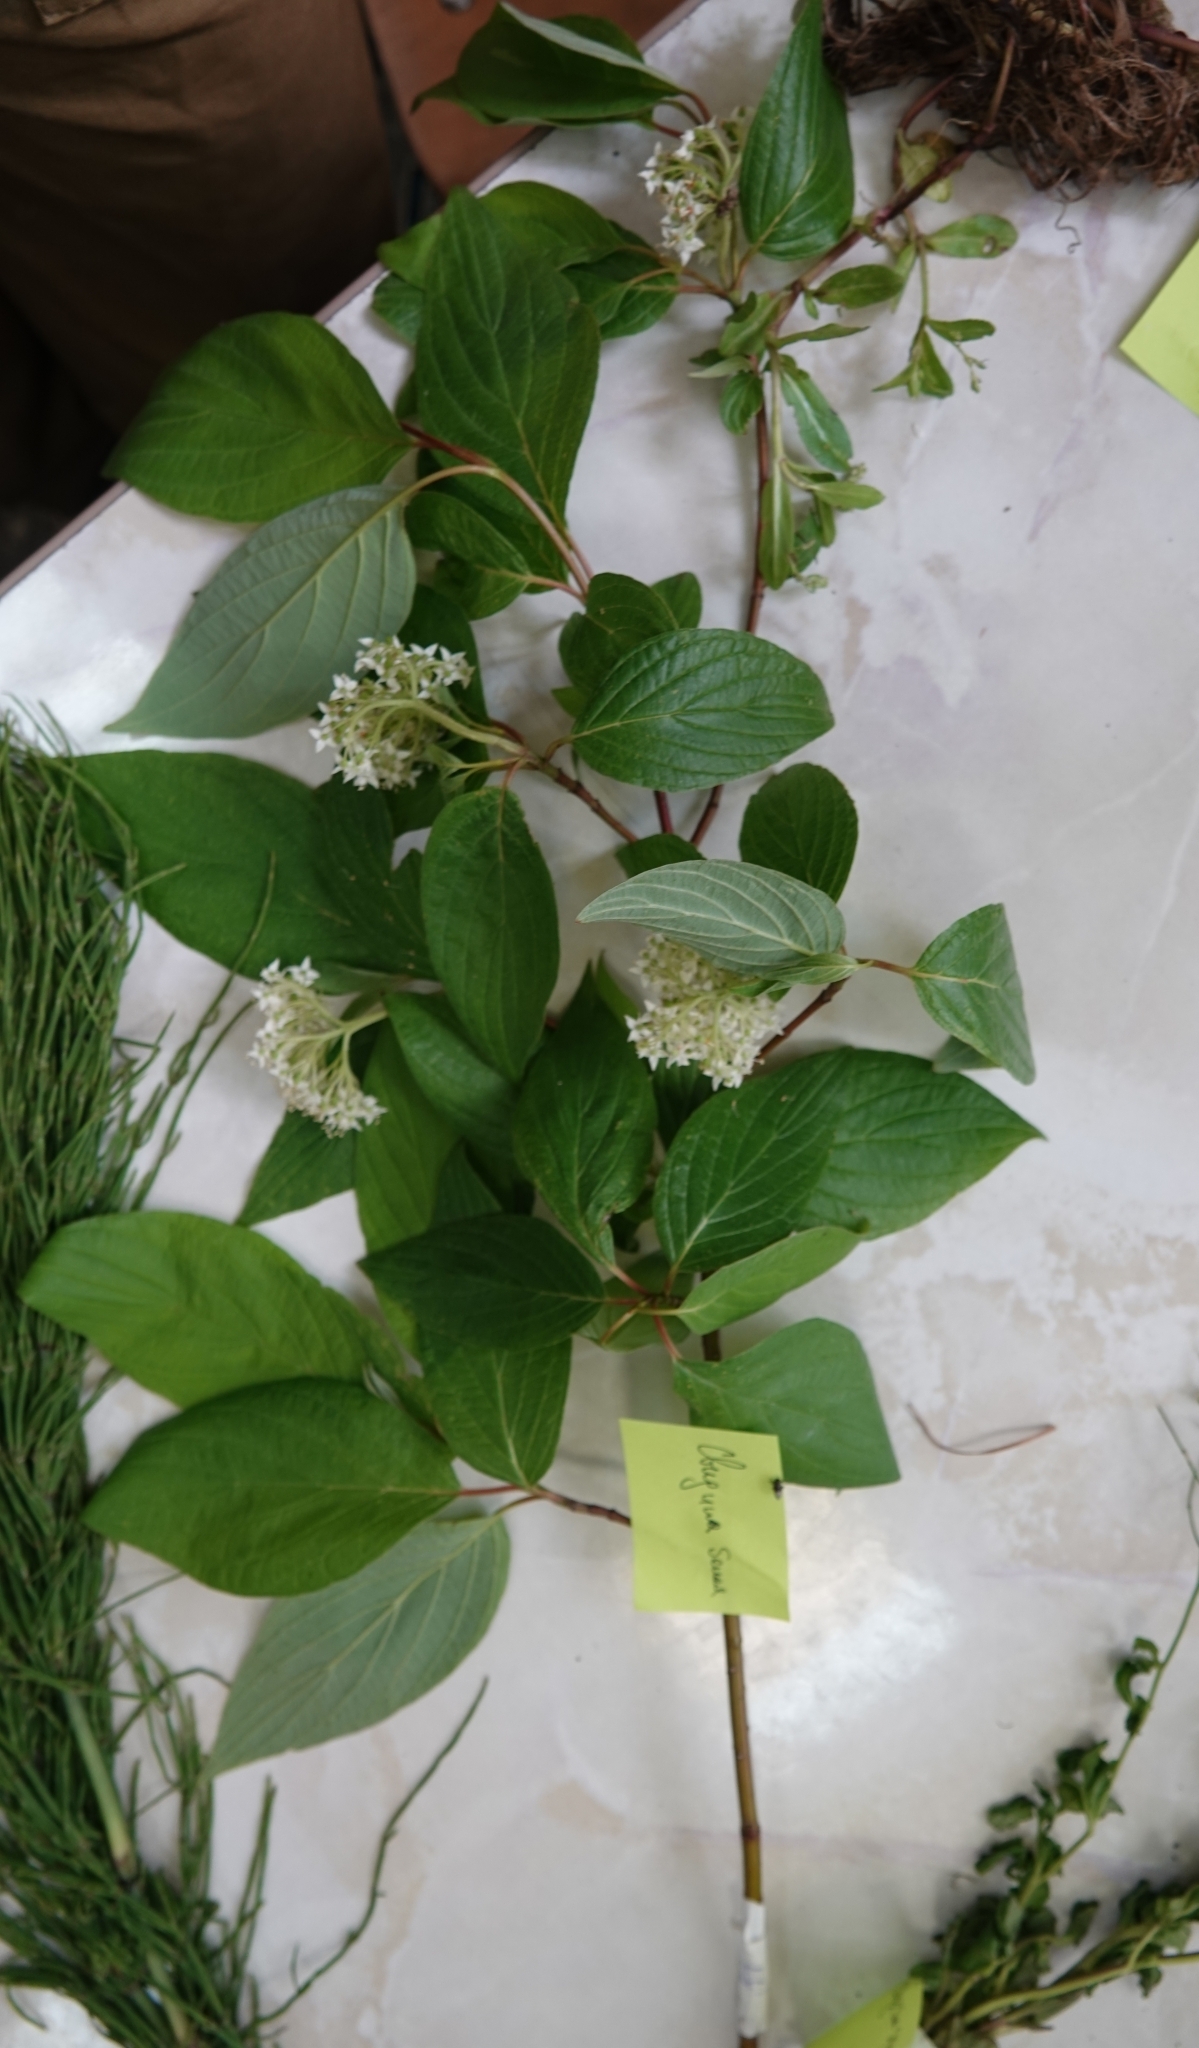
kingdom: Plantae
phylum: Tracheophyta
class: Magnoliopsida
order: Cornales
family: Cornaceae
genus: Cornus
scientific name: Cornus alba
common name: White dogwood
